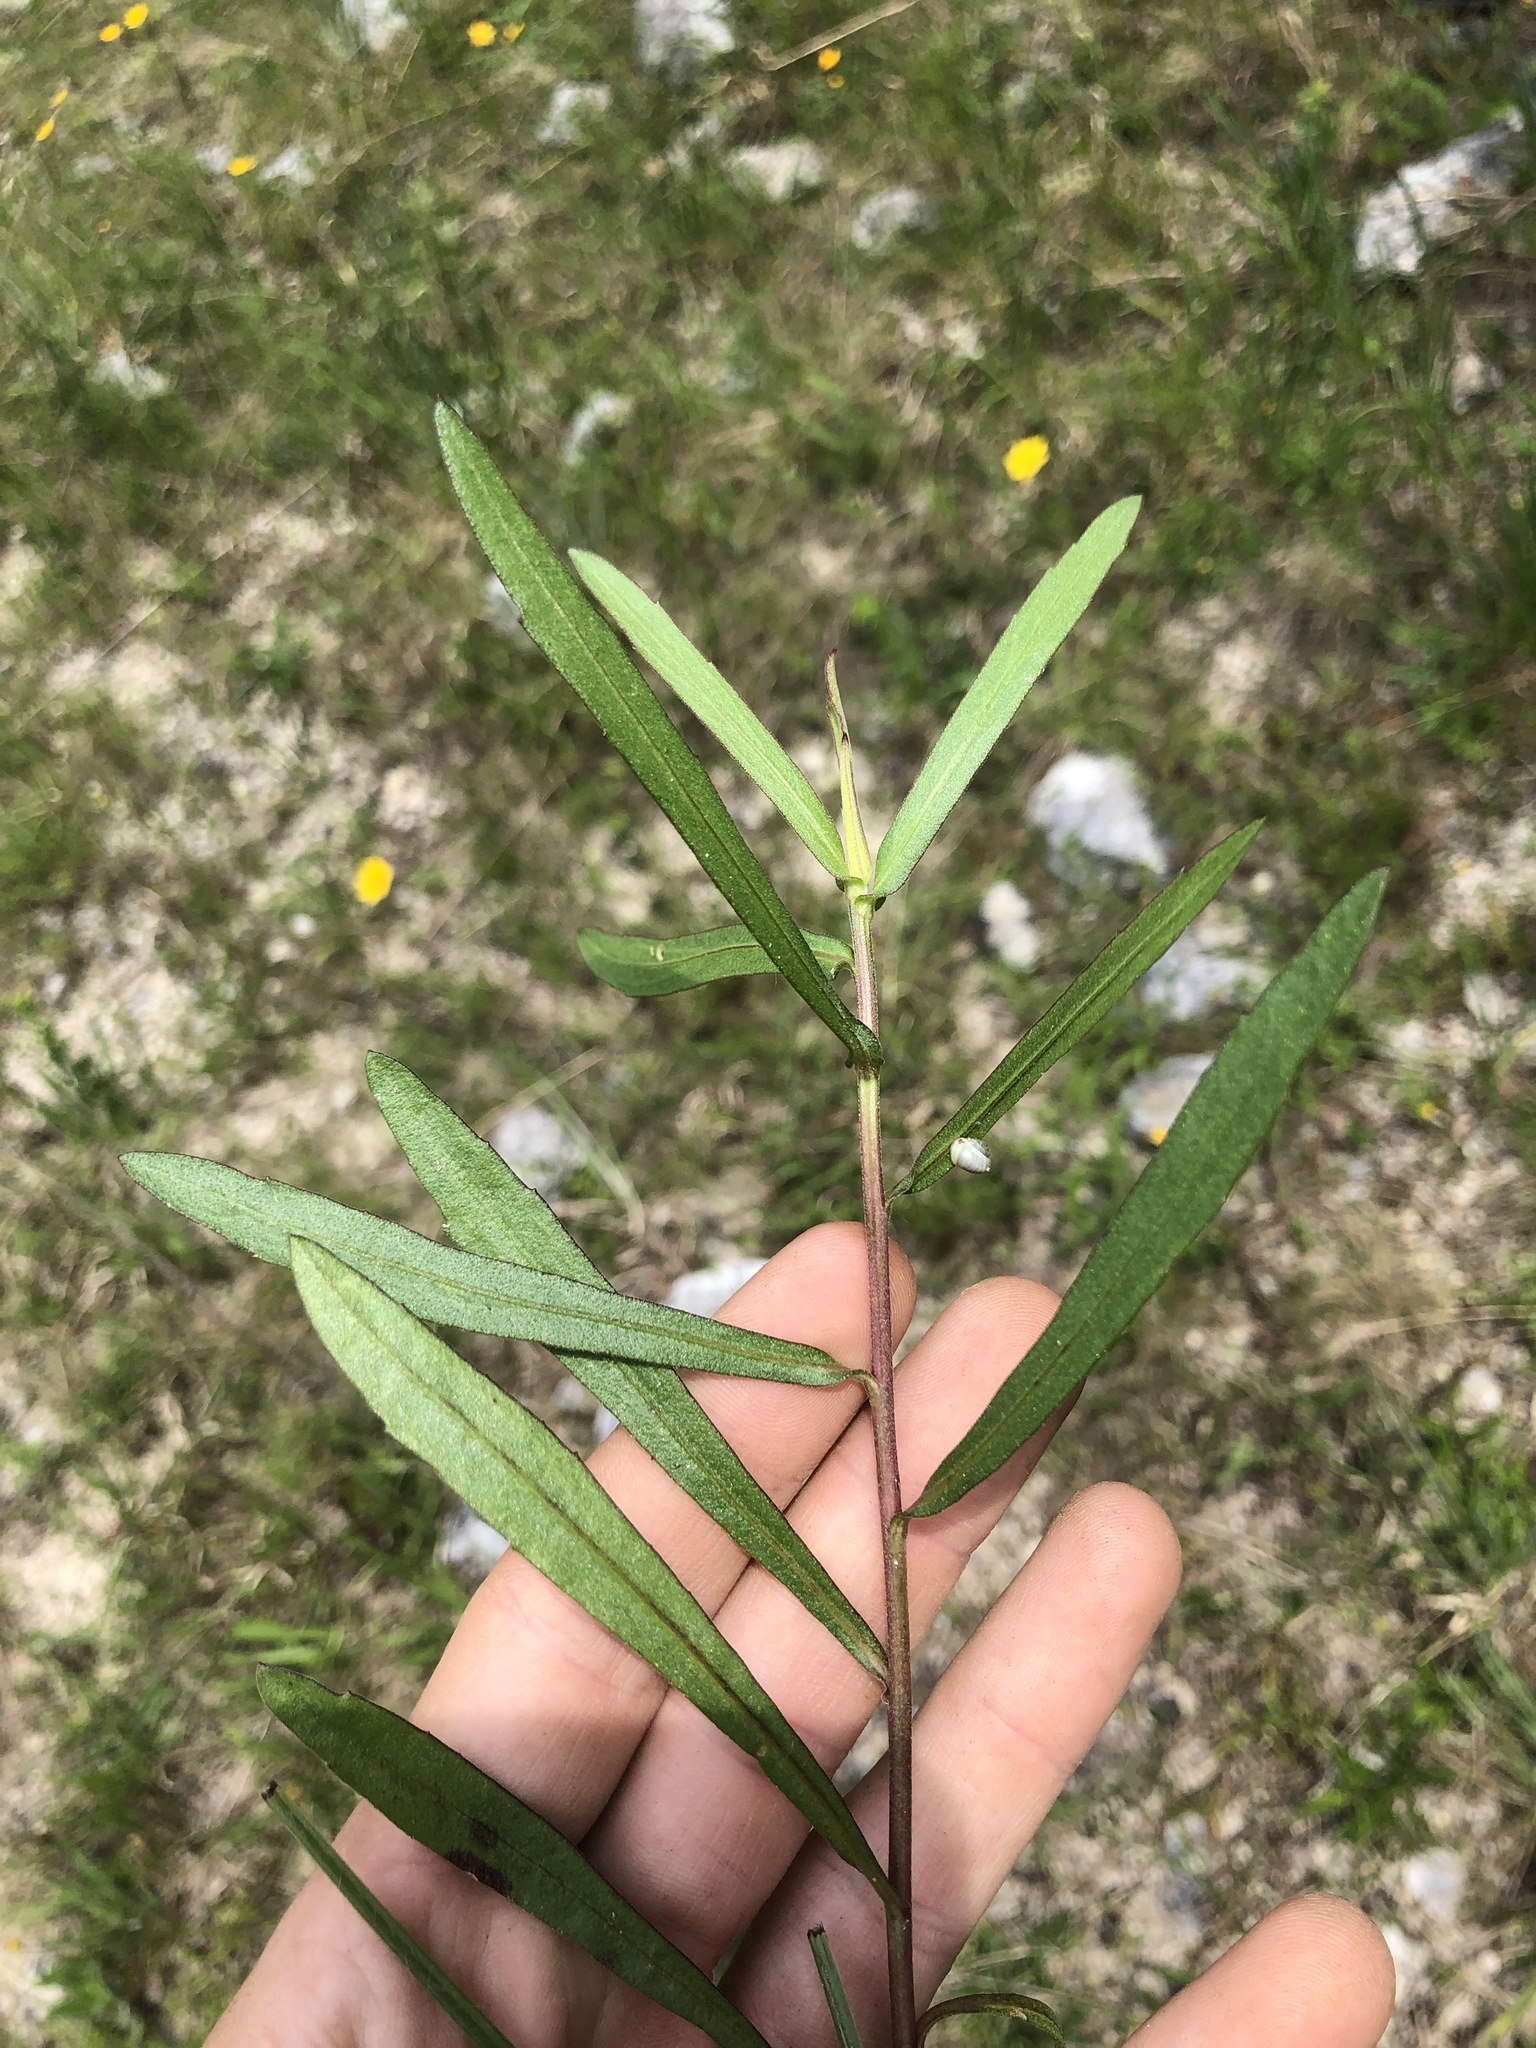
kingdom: Plantae
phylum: Tracheophyta
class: Magnoliopsida
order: Asterales
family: Asteraceae
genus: Gaillardia
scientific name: Gaillardia aestivalis
